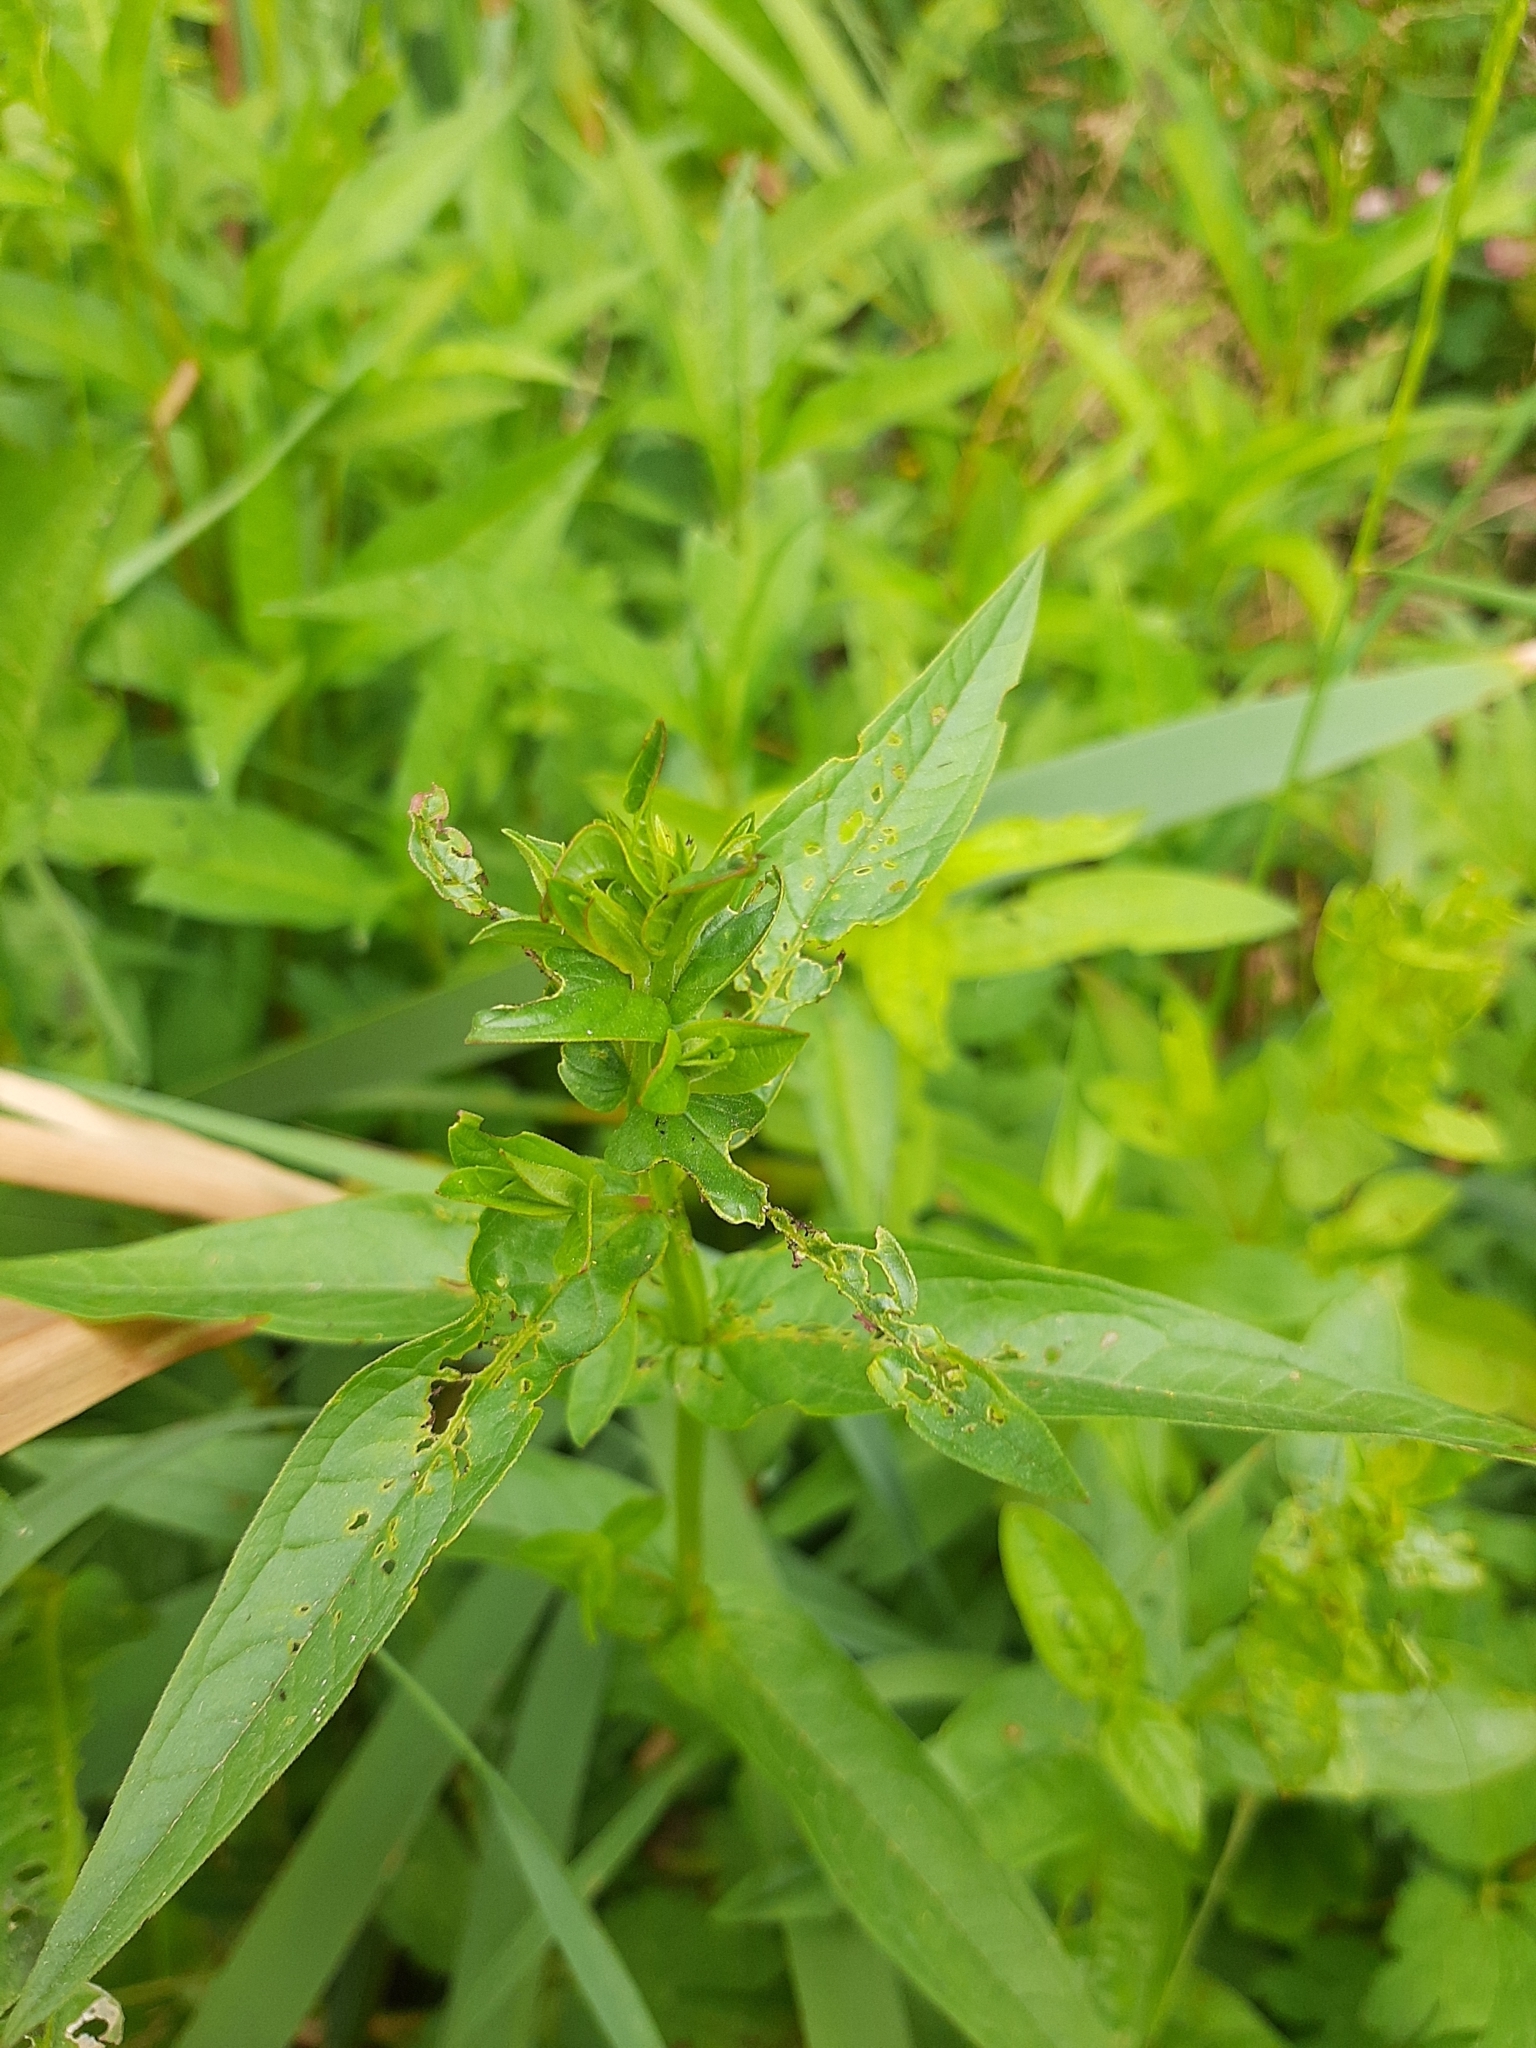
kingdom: Plantae
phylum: Tracheophyta
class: Magnoliopsida
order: Myrtales
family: Lythraceae
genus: Lythrum
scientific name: Lythrum salicaria
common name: Purple loosestrife
